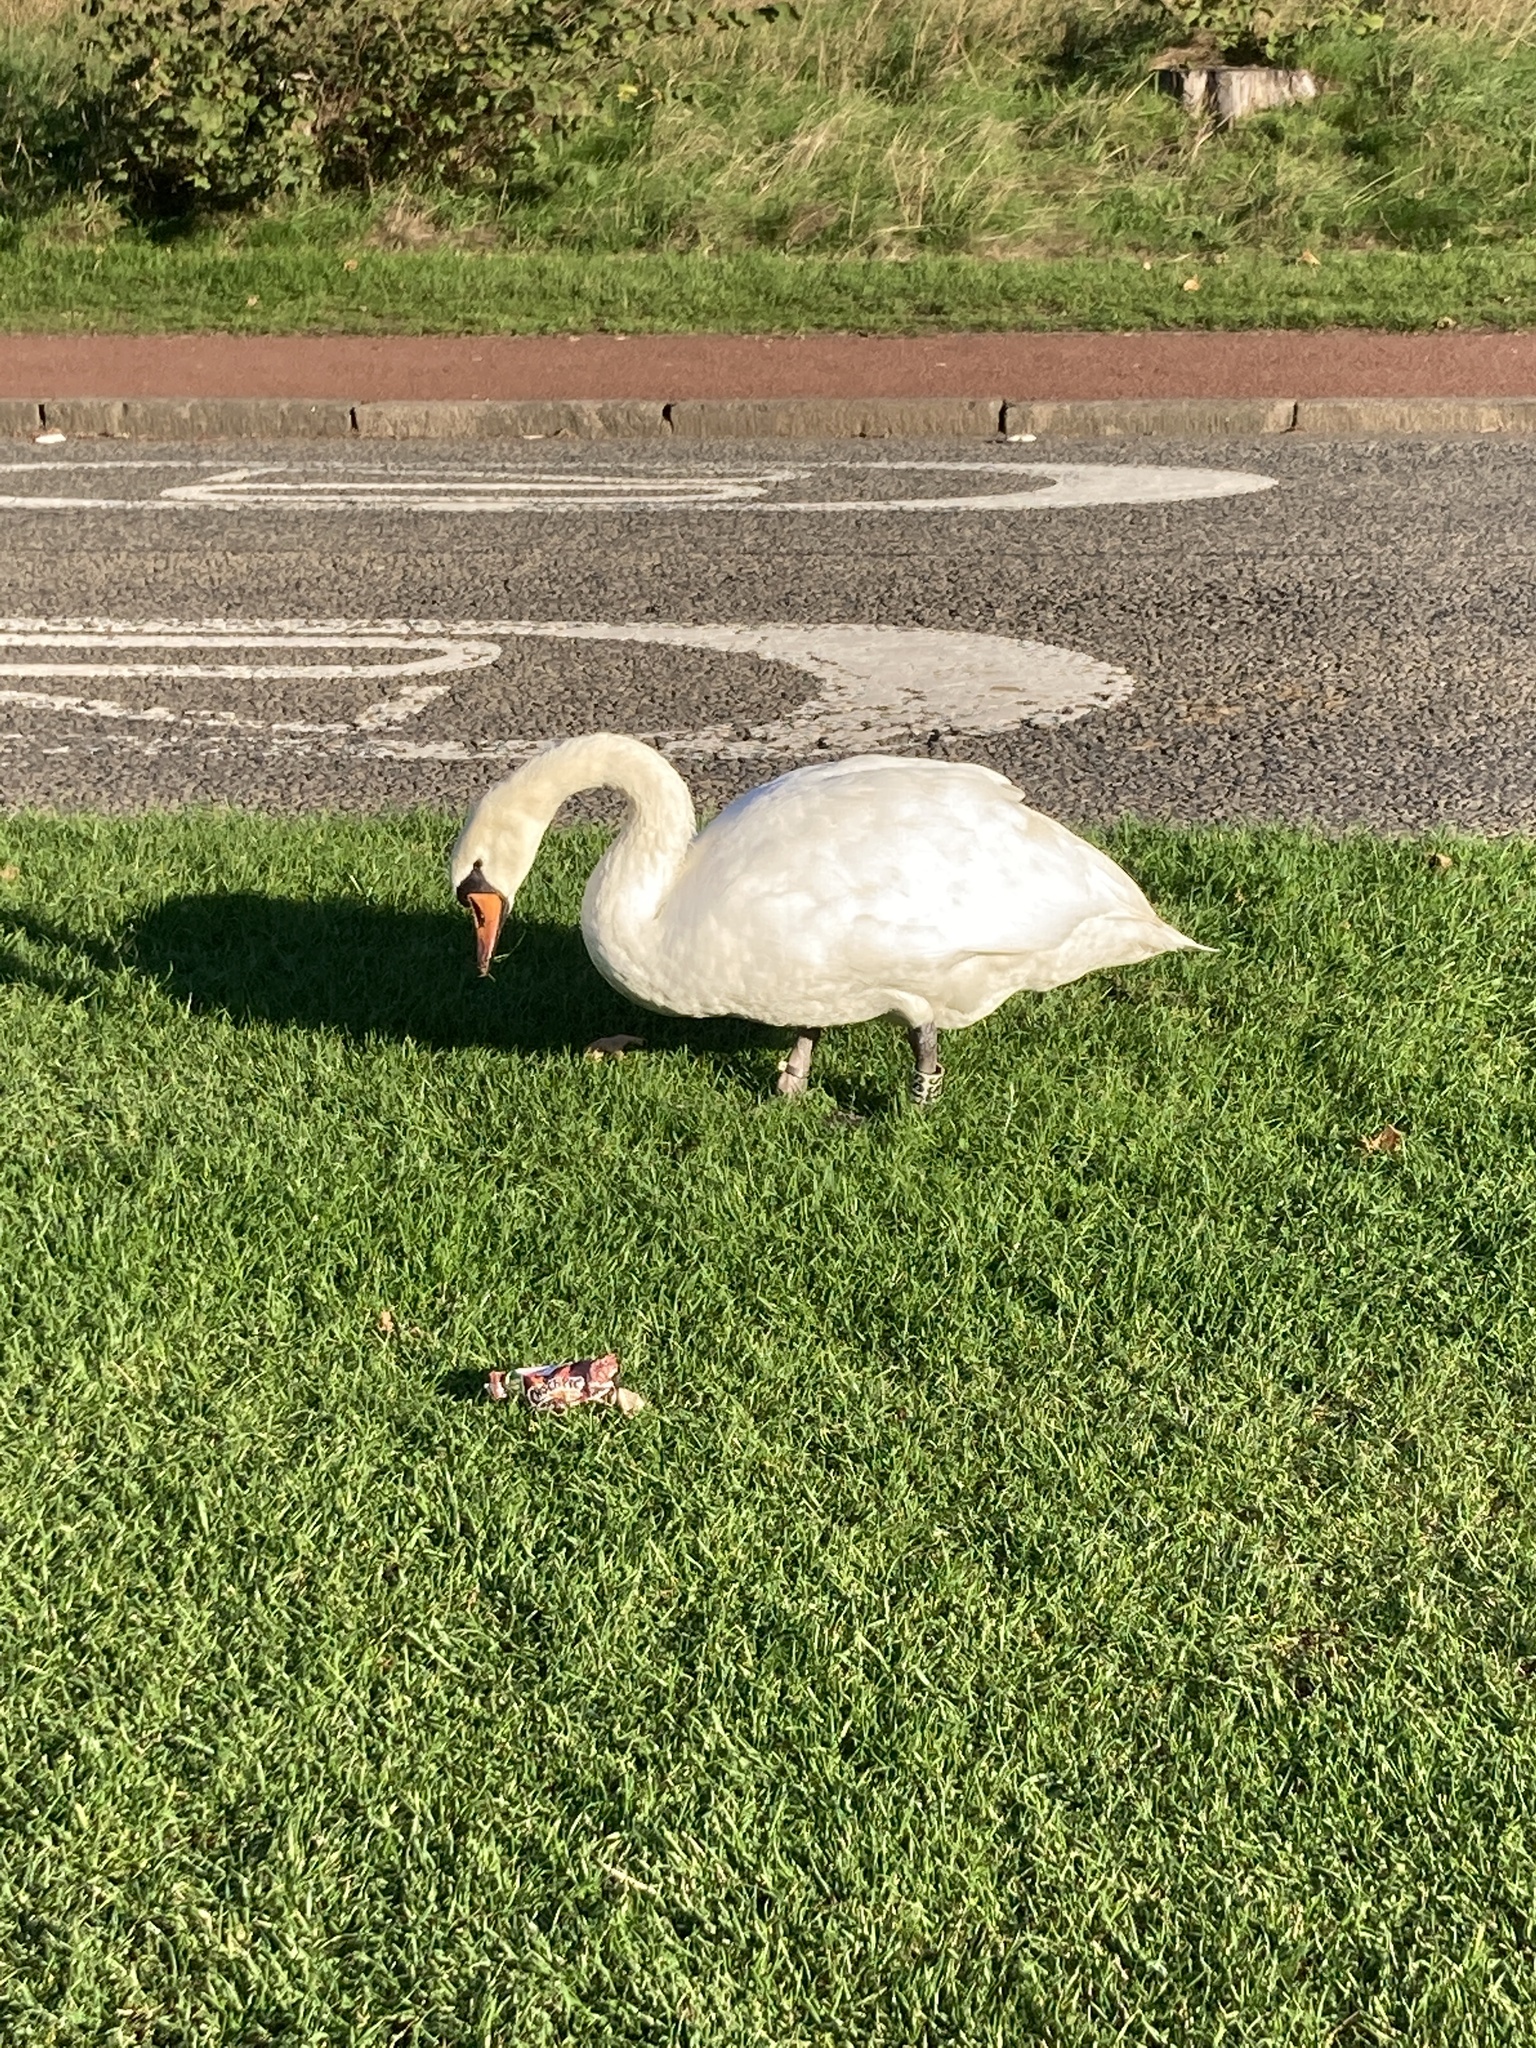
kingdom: Animalia
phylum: Chordata
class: Aves
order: Anseriformes
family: Anatidae
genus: Cygnus
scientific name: Cygnus olor
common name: Mute swan
